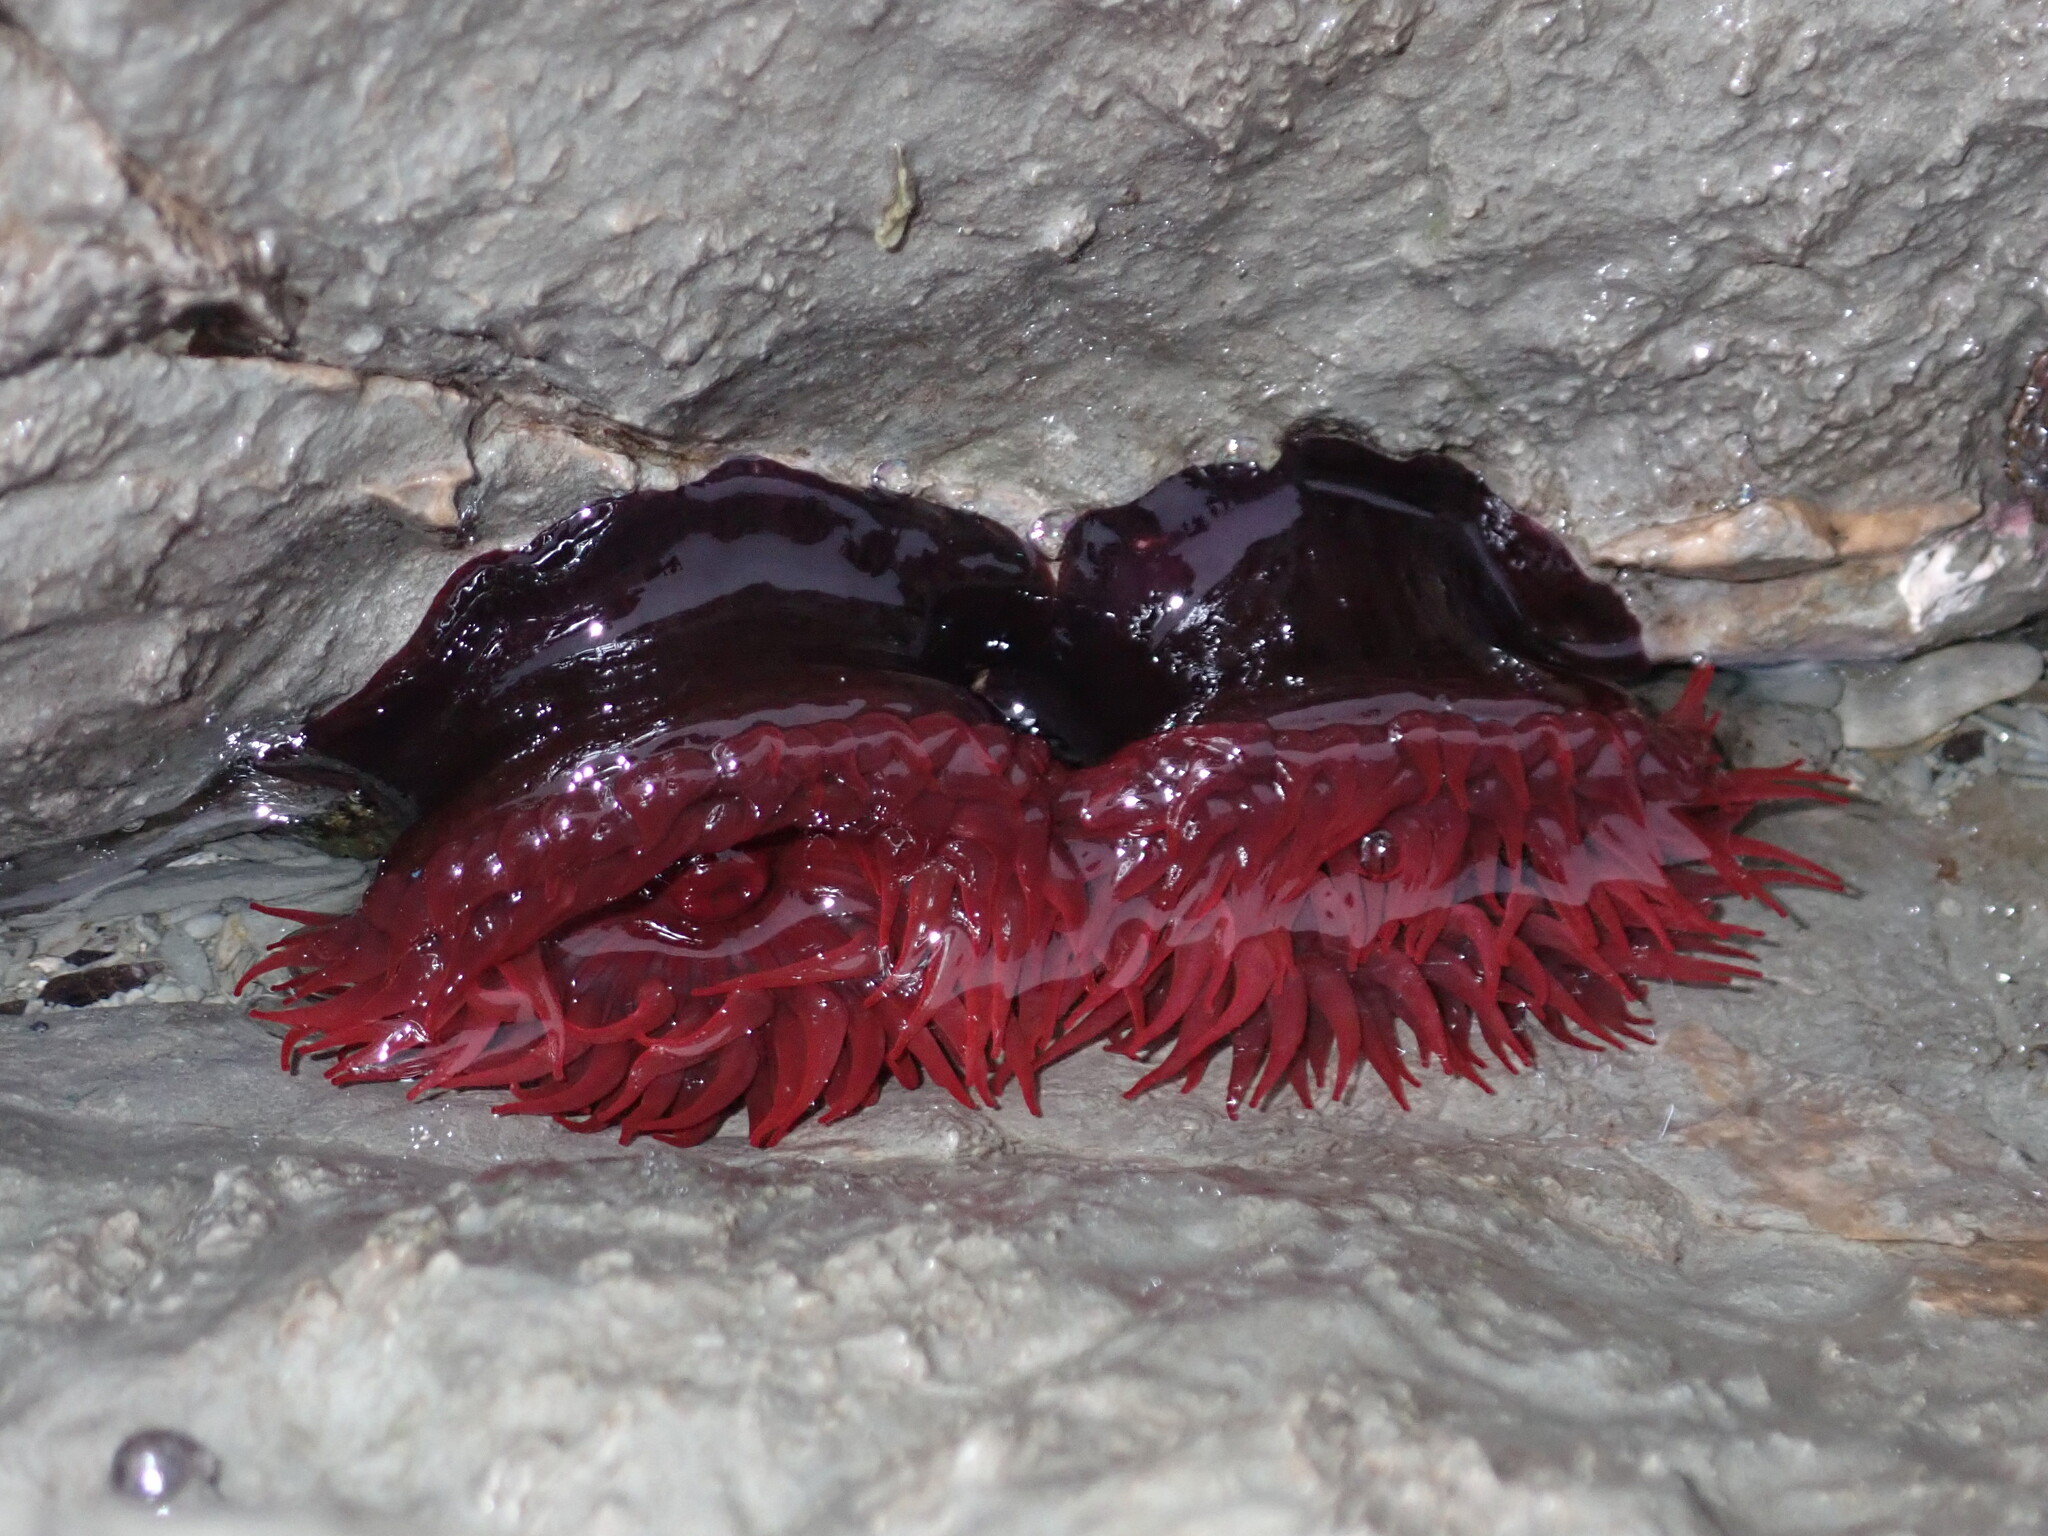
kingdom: Animalia
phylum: Cnidaria
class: Anthozoa
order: Actiniaria
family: Actiniidae
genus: Actinia
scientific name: Actinia tenebrosa
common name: Waratah anemone
